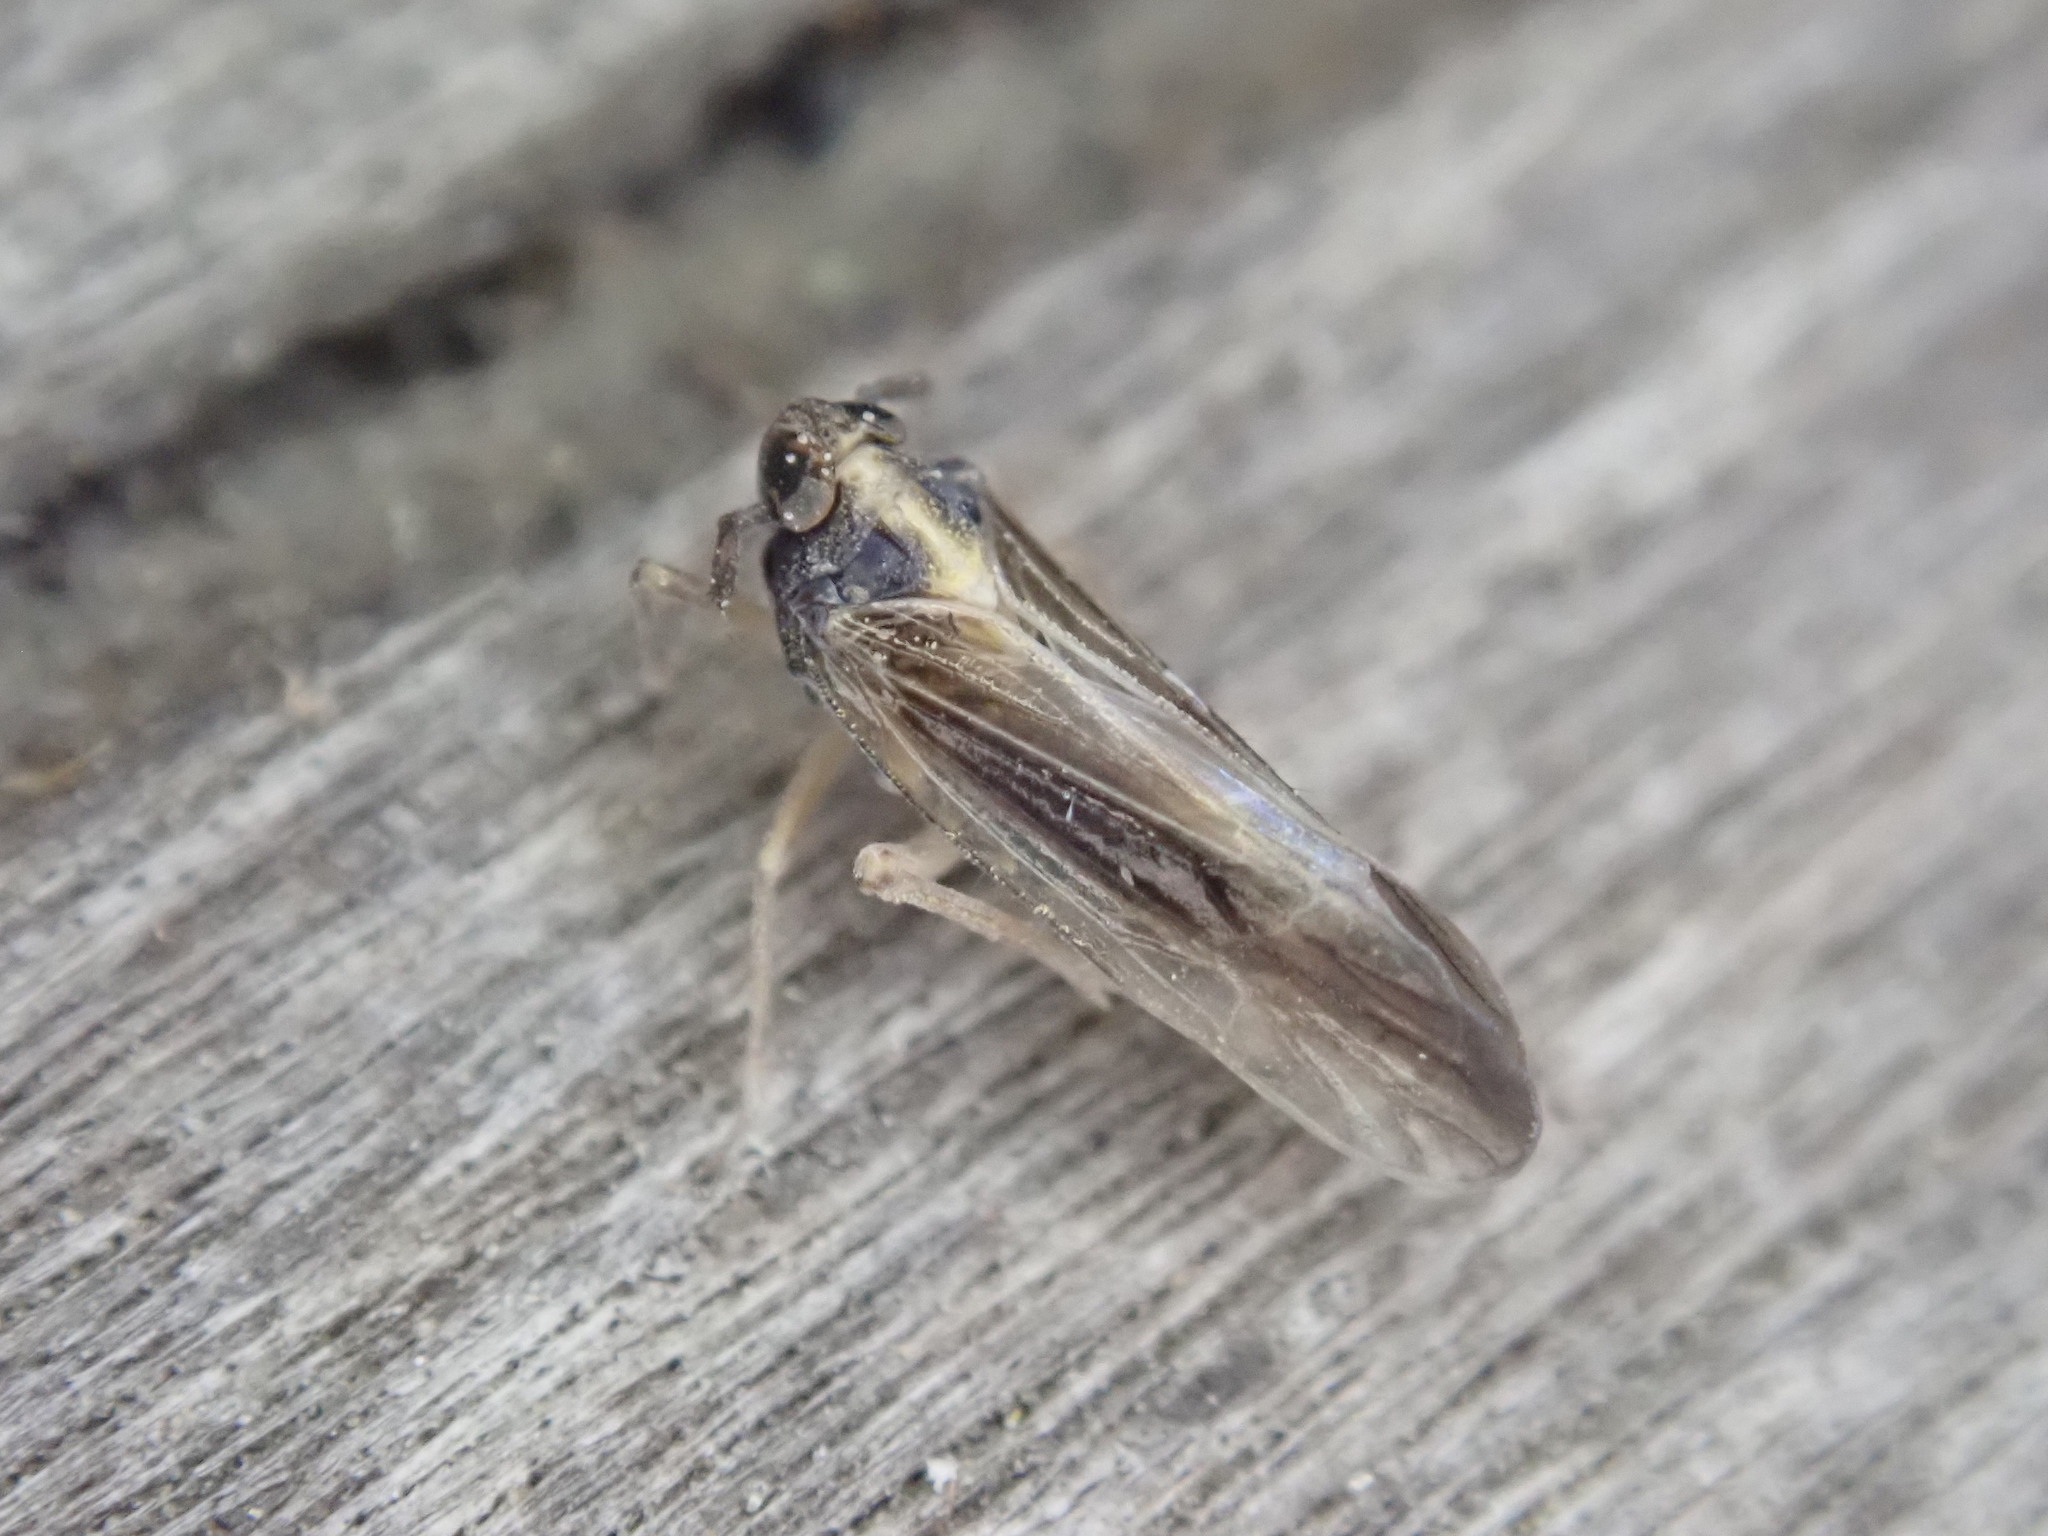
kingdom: Animalia
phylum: Arthropoda
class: Insecta
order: Hemiptera
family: Delphacidae
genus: Tarophagus
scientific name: Tarophagus colocasiae
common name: Taro planthopper
